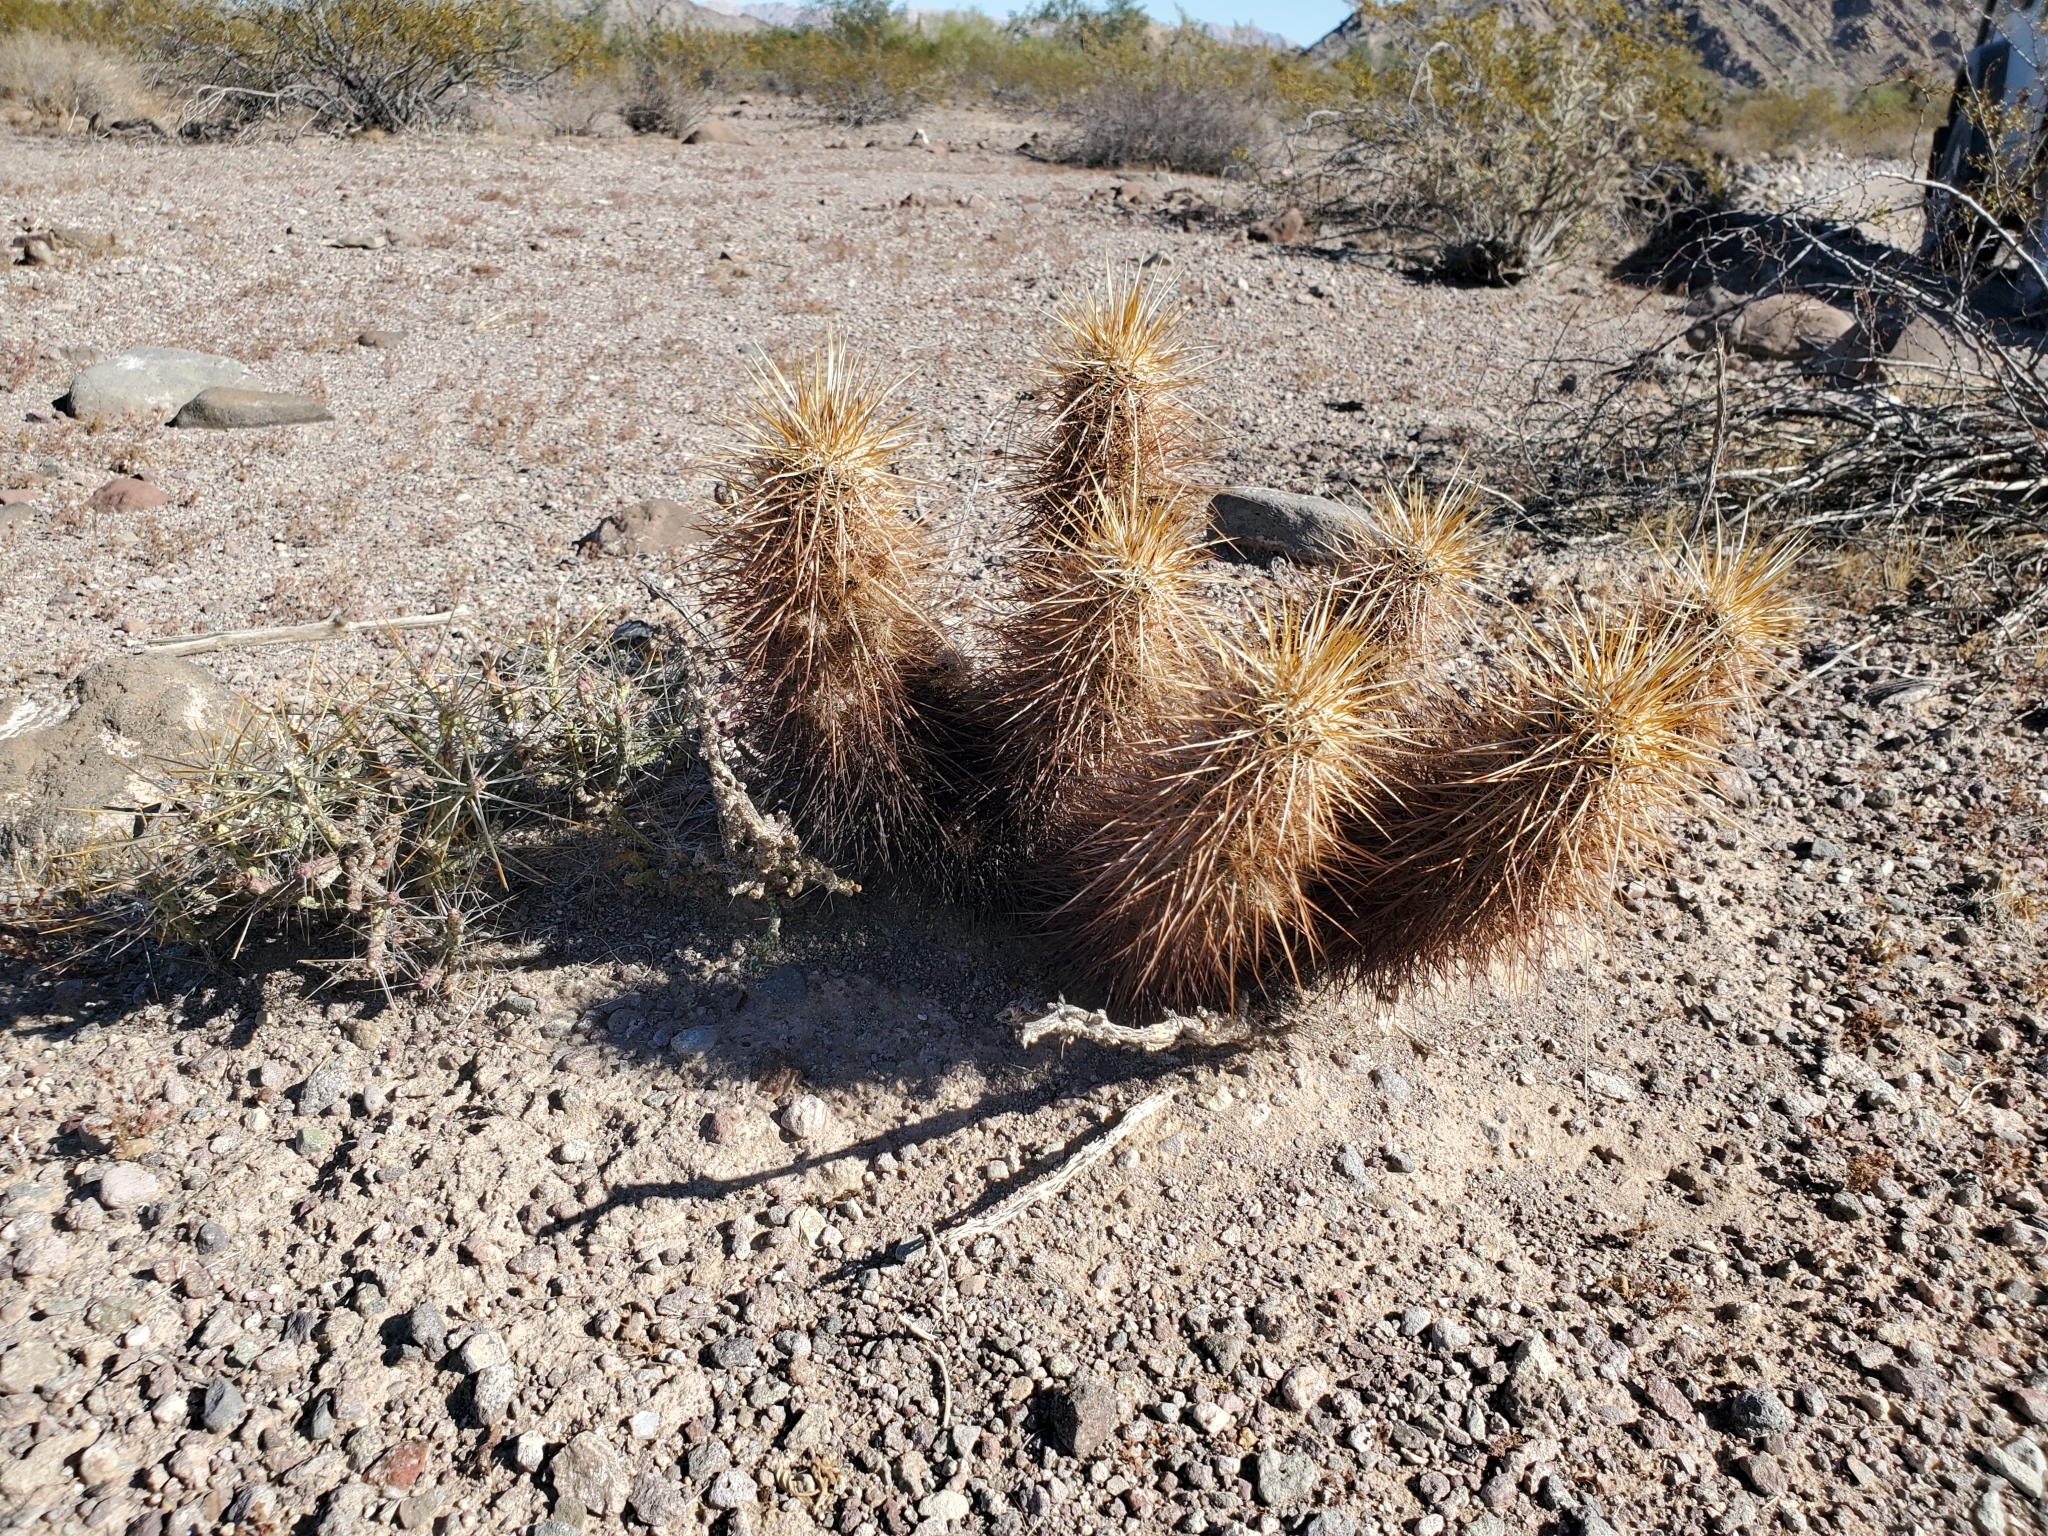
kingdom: Plantae
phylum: Tracheophyta
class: Magnoliopsida
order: Caryophyllales
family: Cactaceae
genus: Echinocereus
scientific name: Echinocereus engelmannii
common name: Engelmann's hedgehog cactus
